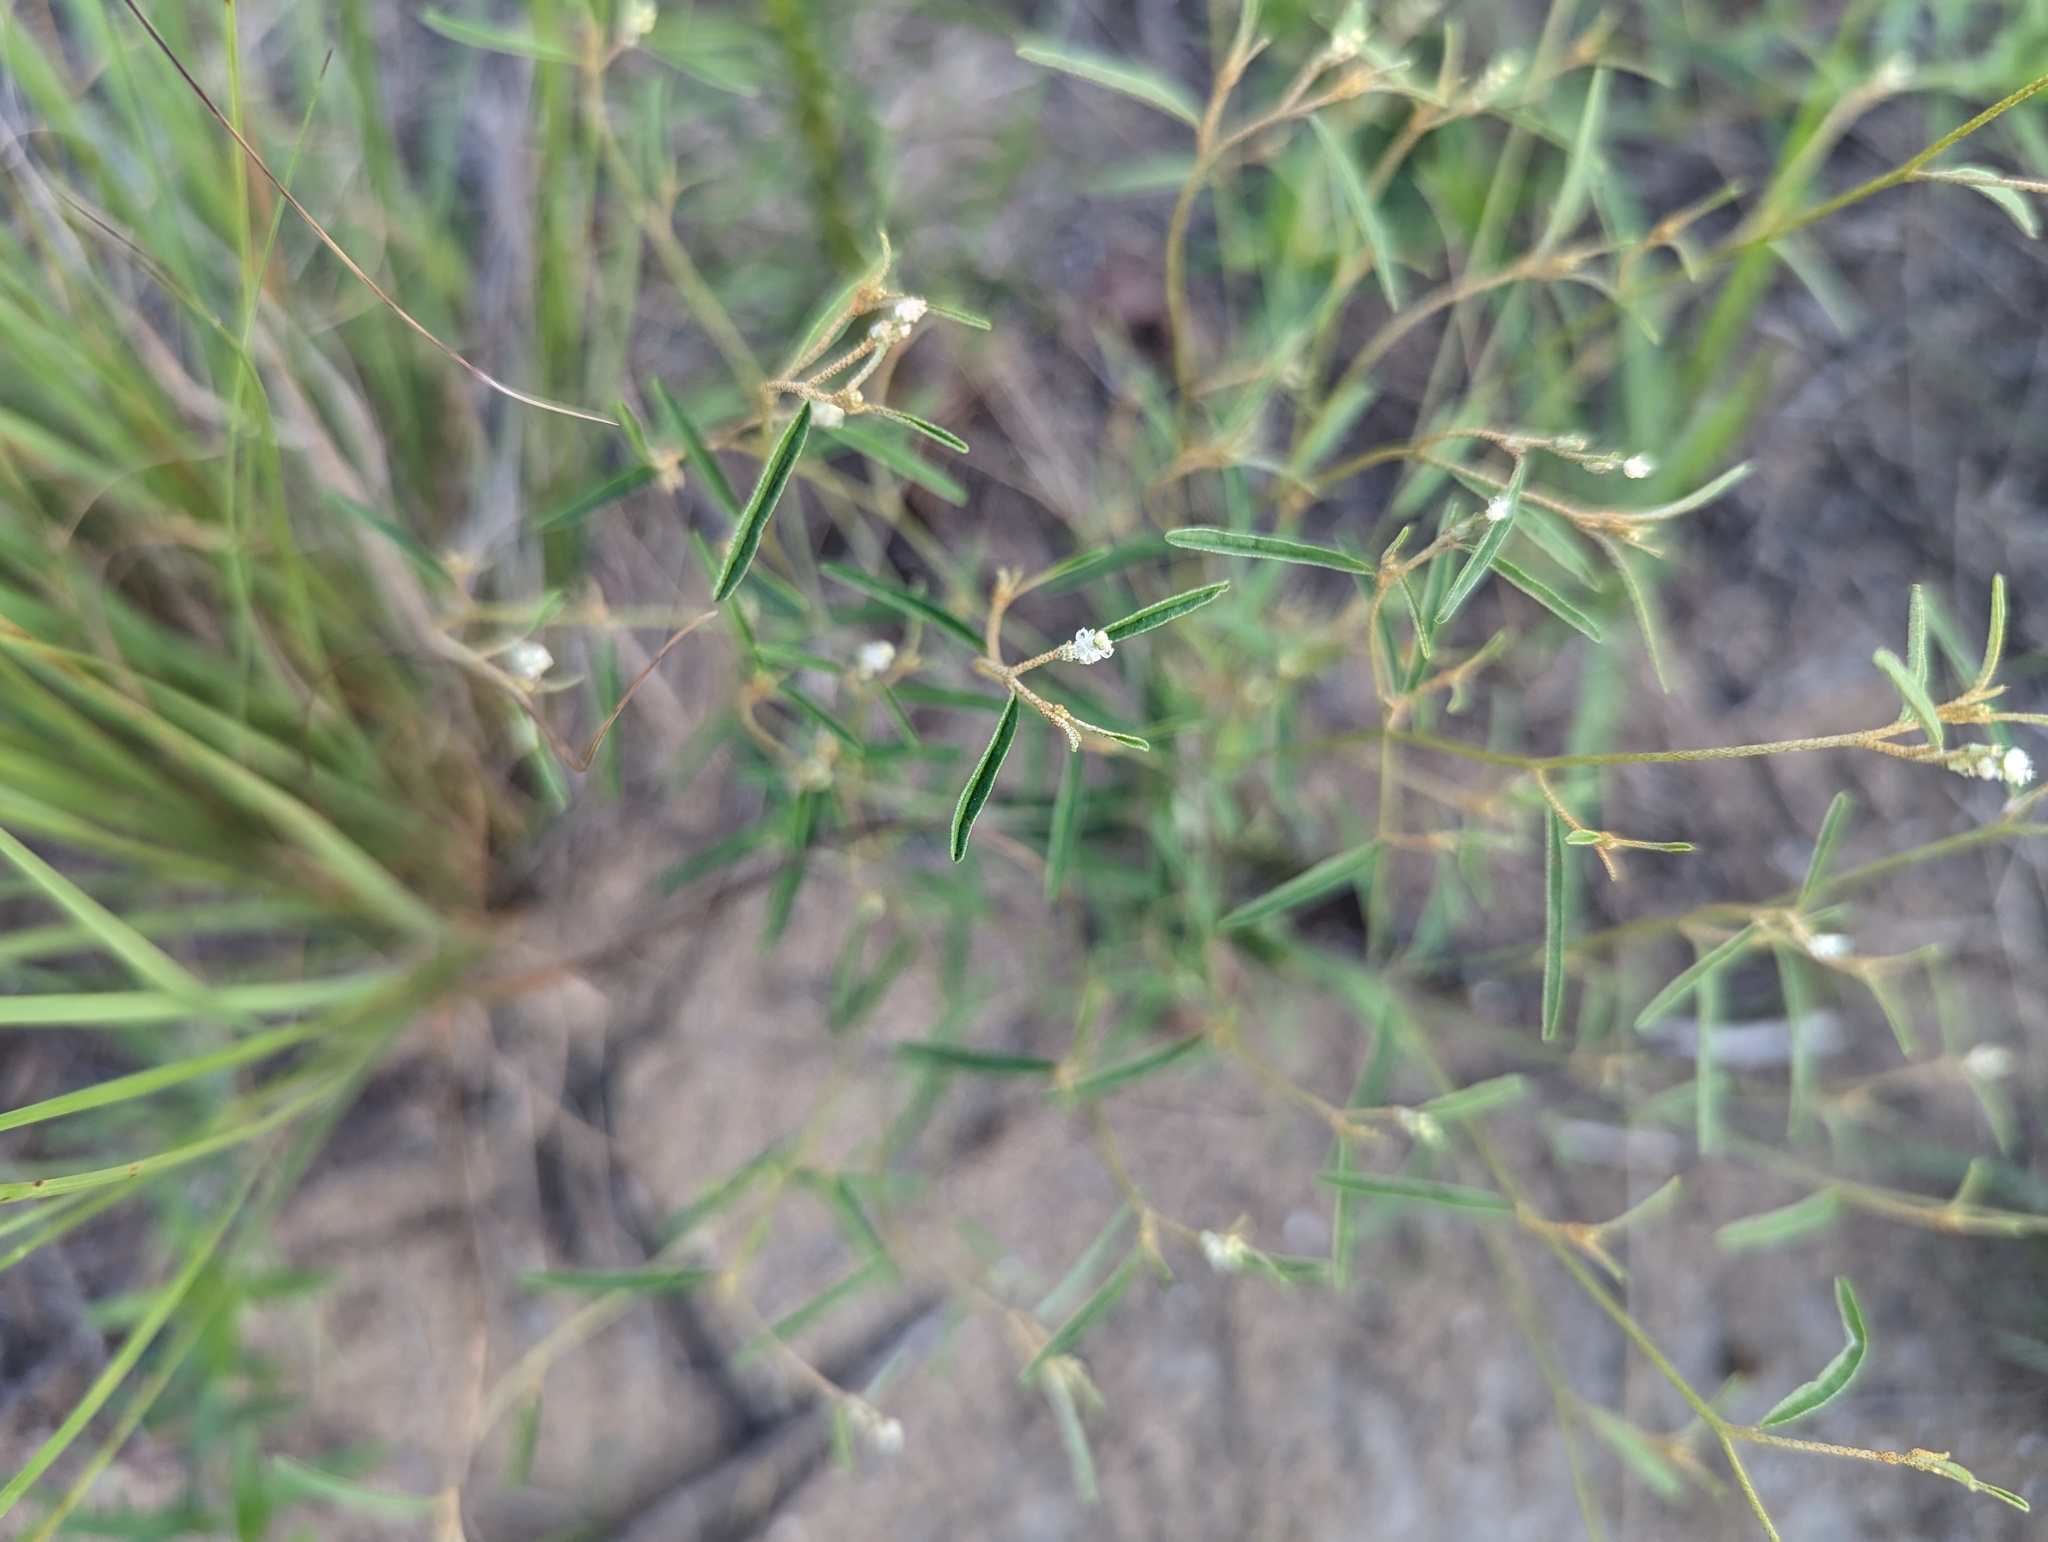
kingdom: Plantae
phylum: Tracheophyta
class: Magnoliopsida
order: Malpighiales
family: Euphorbiaceae
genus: Croton
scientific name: Croton michauxii
